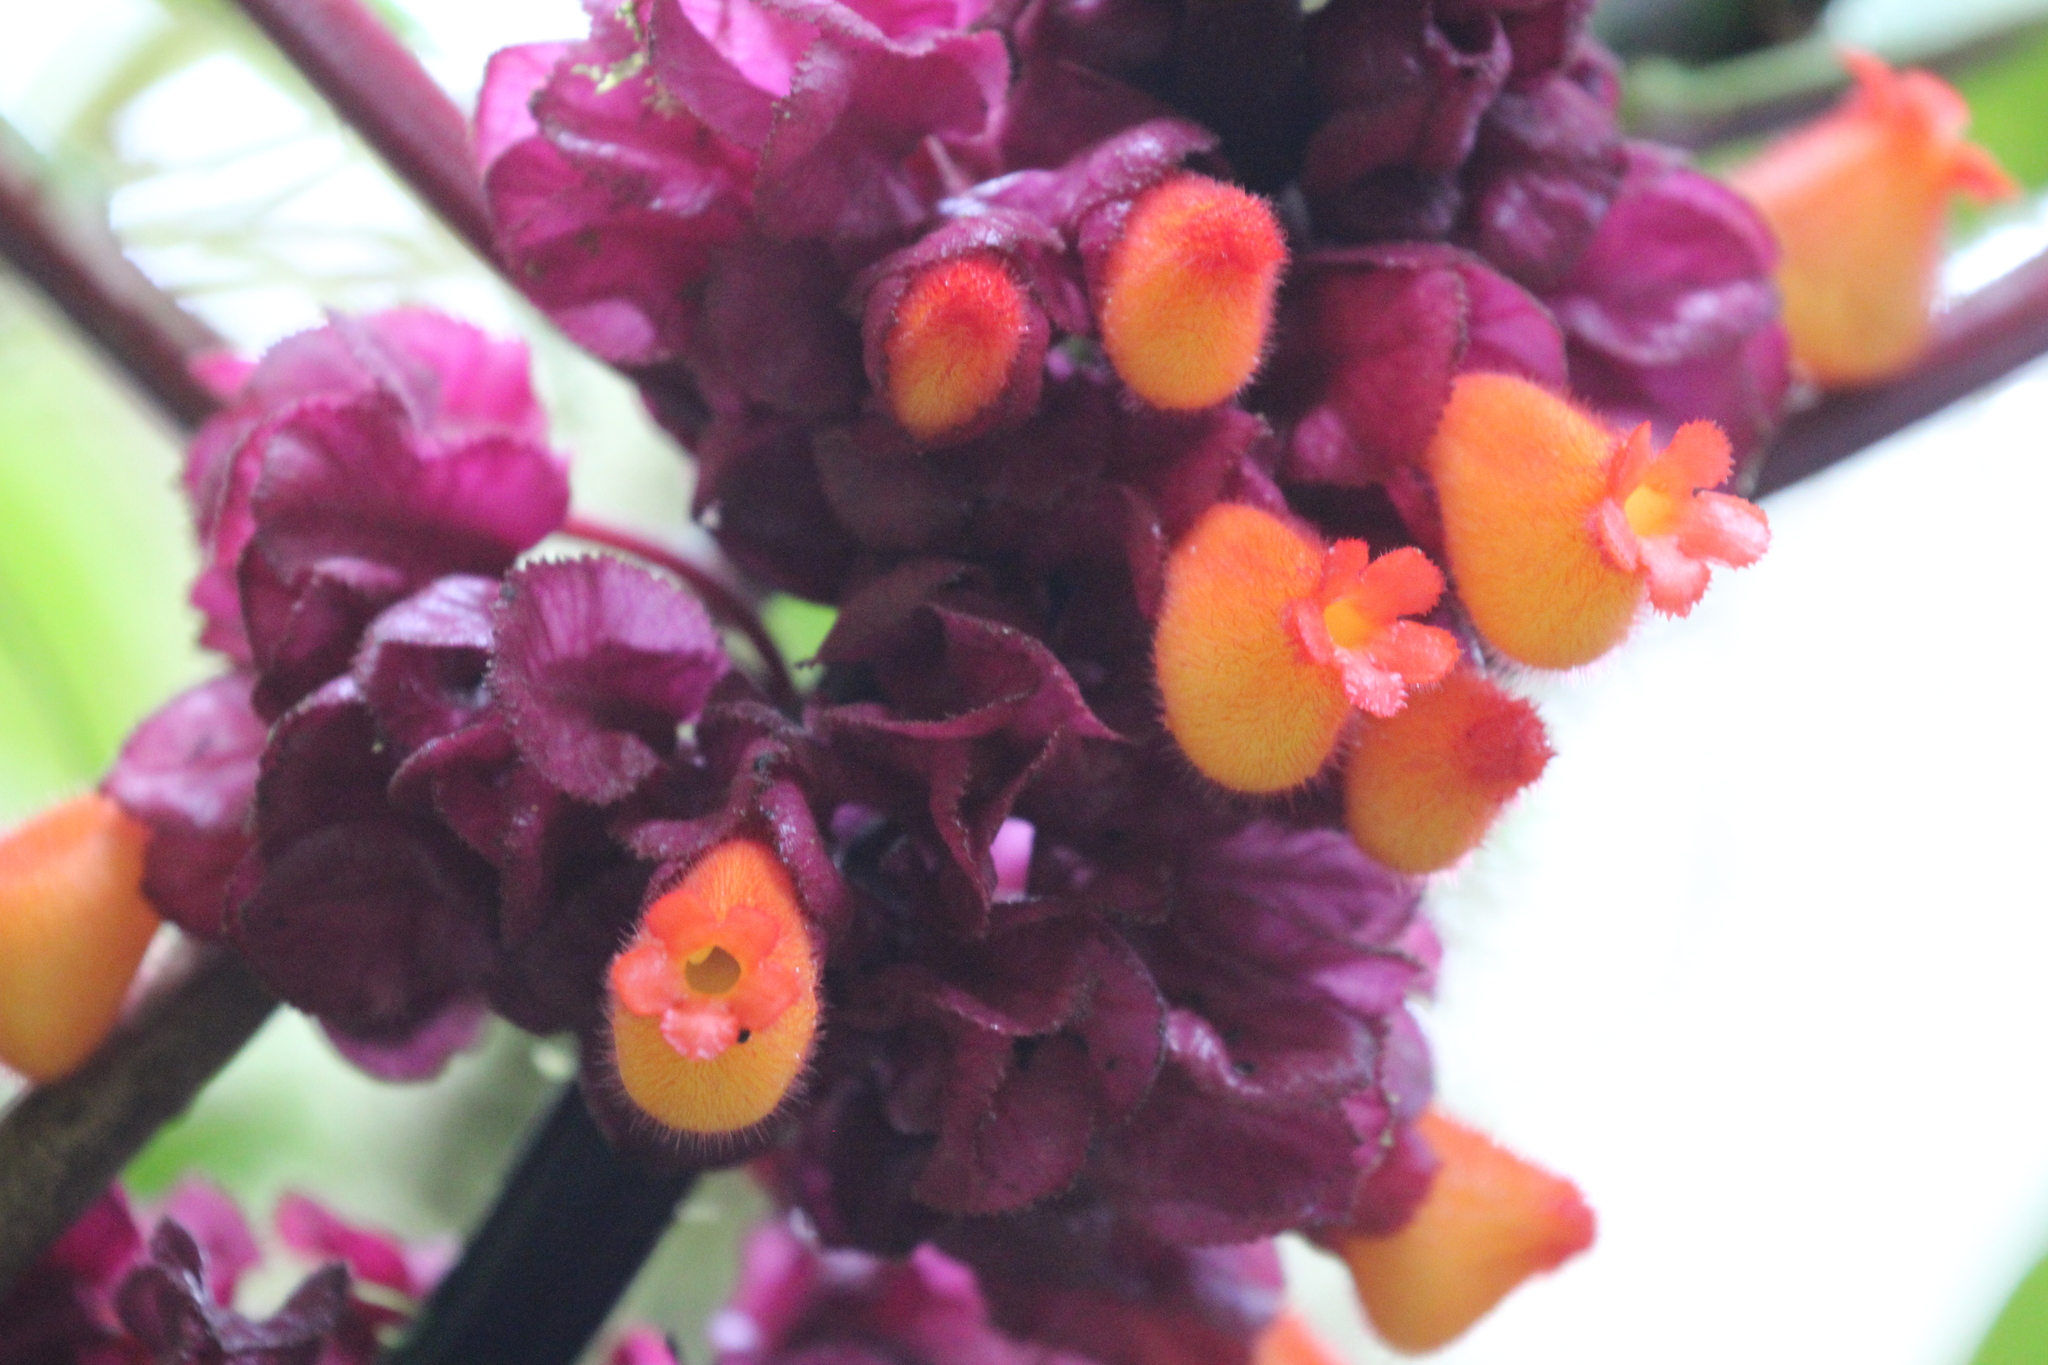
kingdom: Plantae
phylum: Tracheophyta
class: Magnoliopsida
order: Lamiales
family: Gesneriaceae
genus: Drymonia
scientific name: Drymonia collegarum
